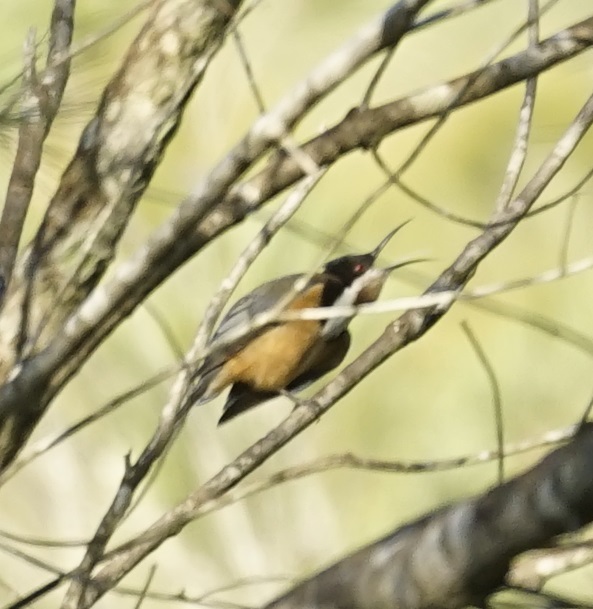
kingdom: Animalia
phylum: Chordata
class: Aves
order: Passeriformes
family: Meliphagidae
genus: Acanthorhynchus
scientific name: Acanthorhynchus tenuirostris
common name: Eastern spinebill
